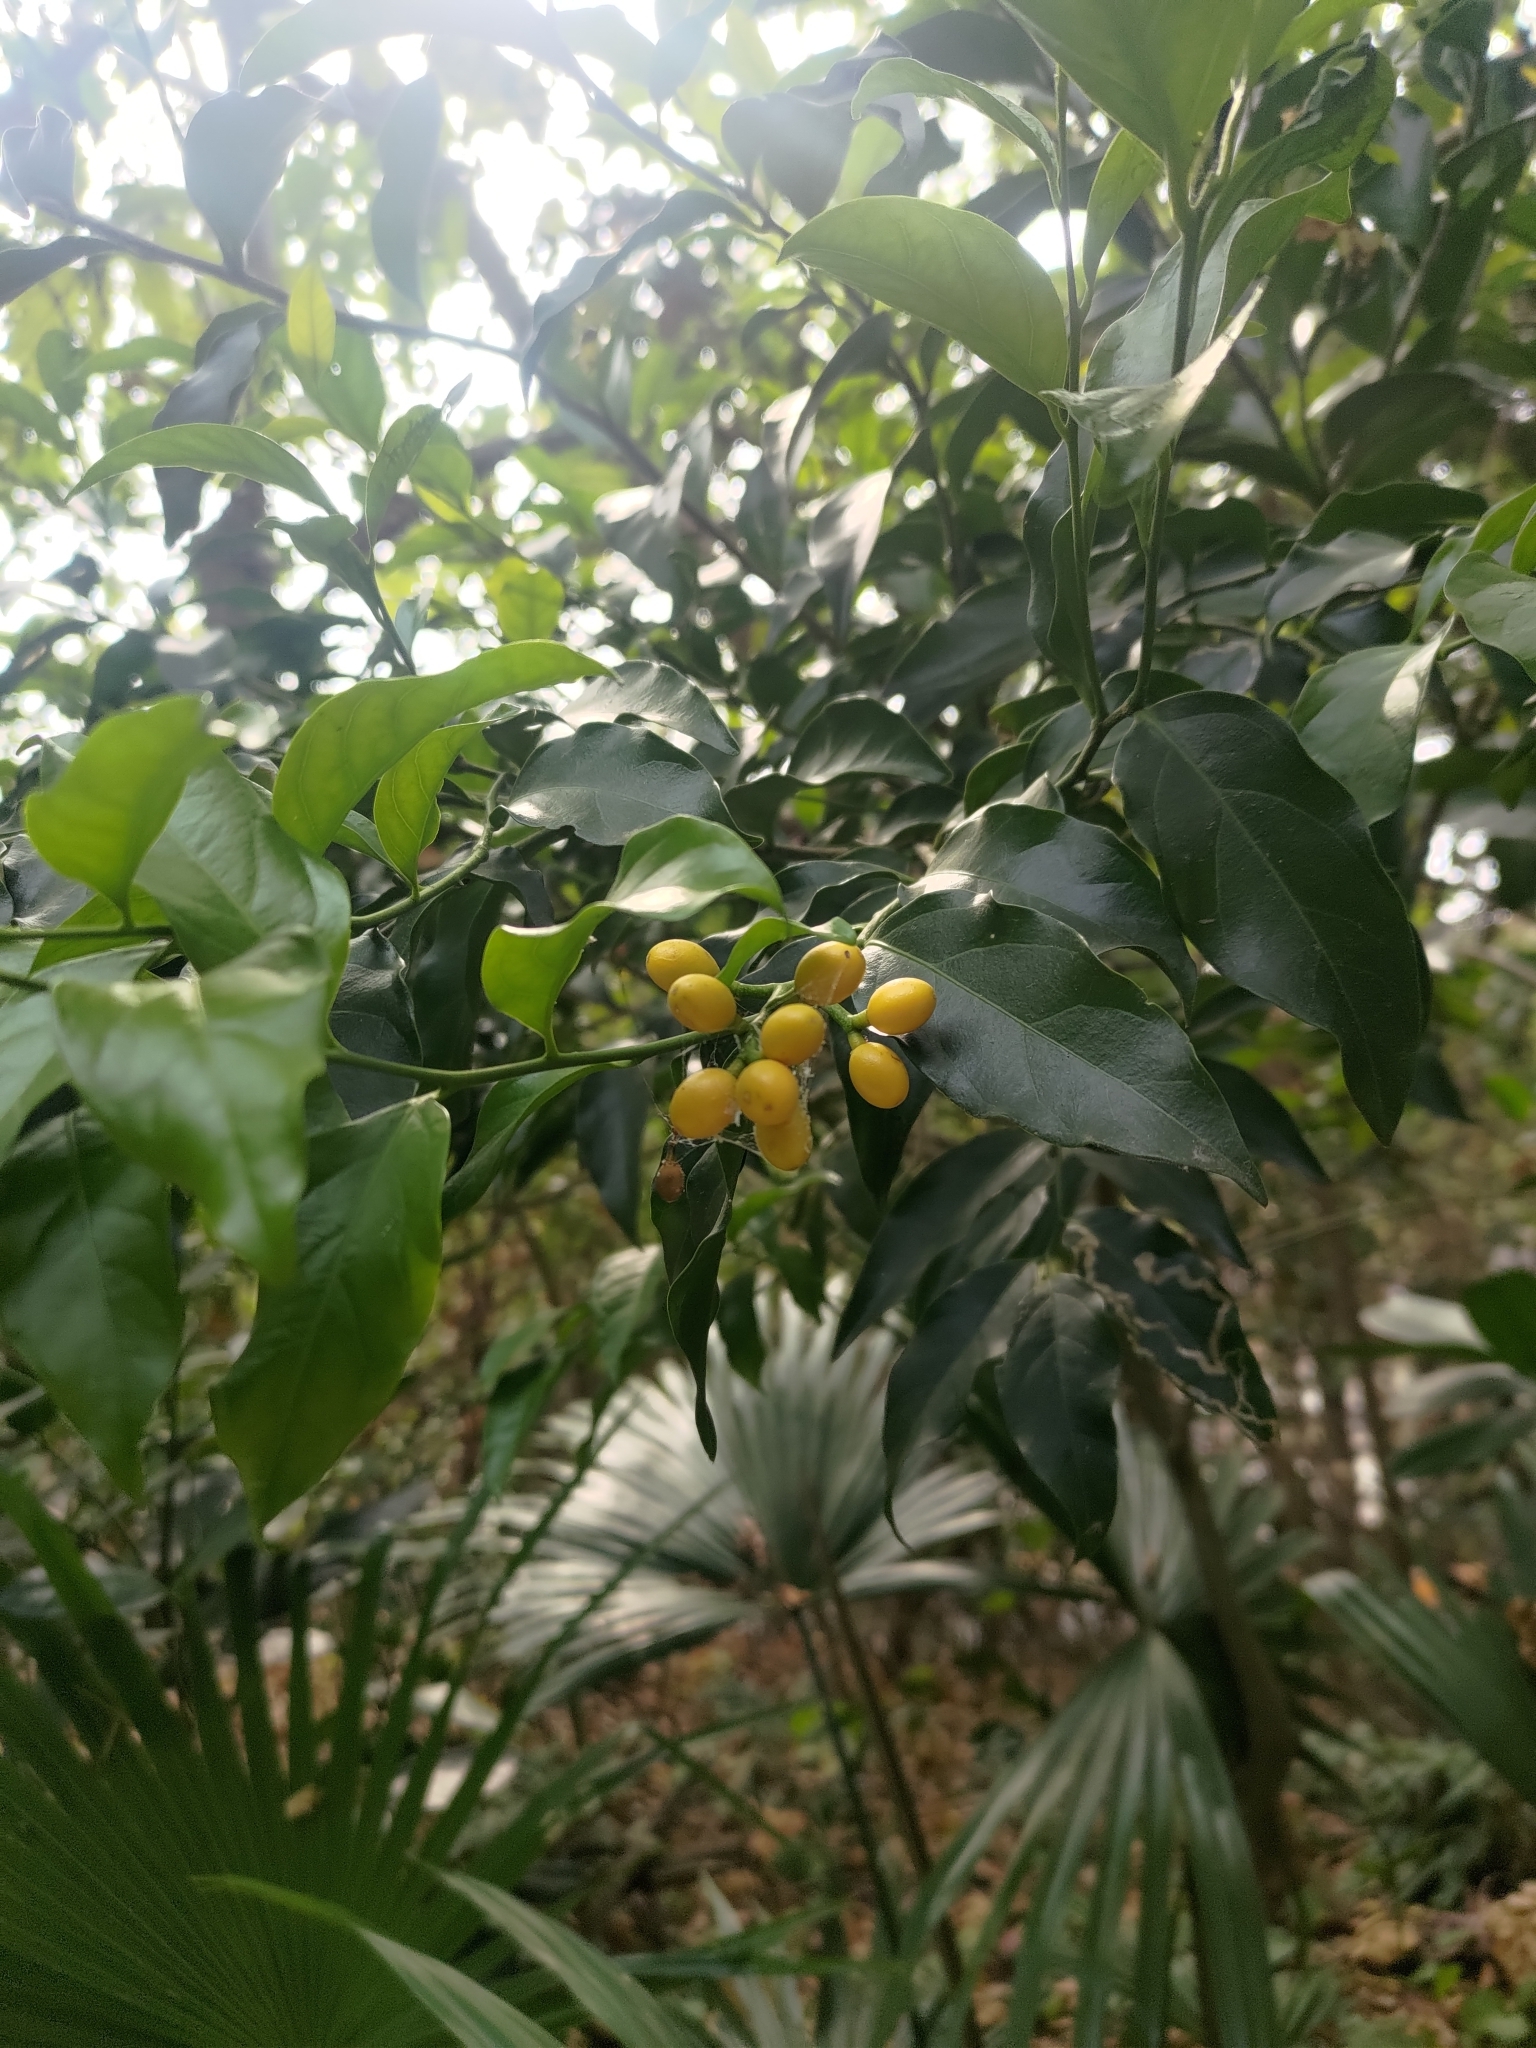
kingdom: Plantae
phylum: Tracheophyta
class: Magnoliopsida
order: Santalales
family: Opiliaceae
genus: Champereia
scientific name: Champereia manillana
